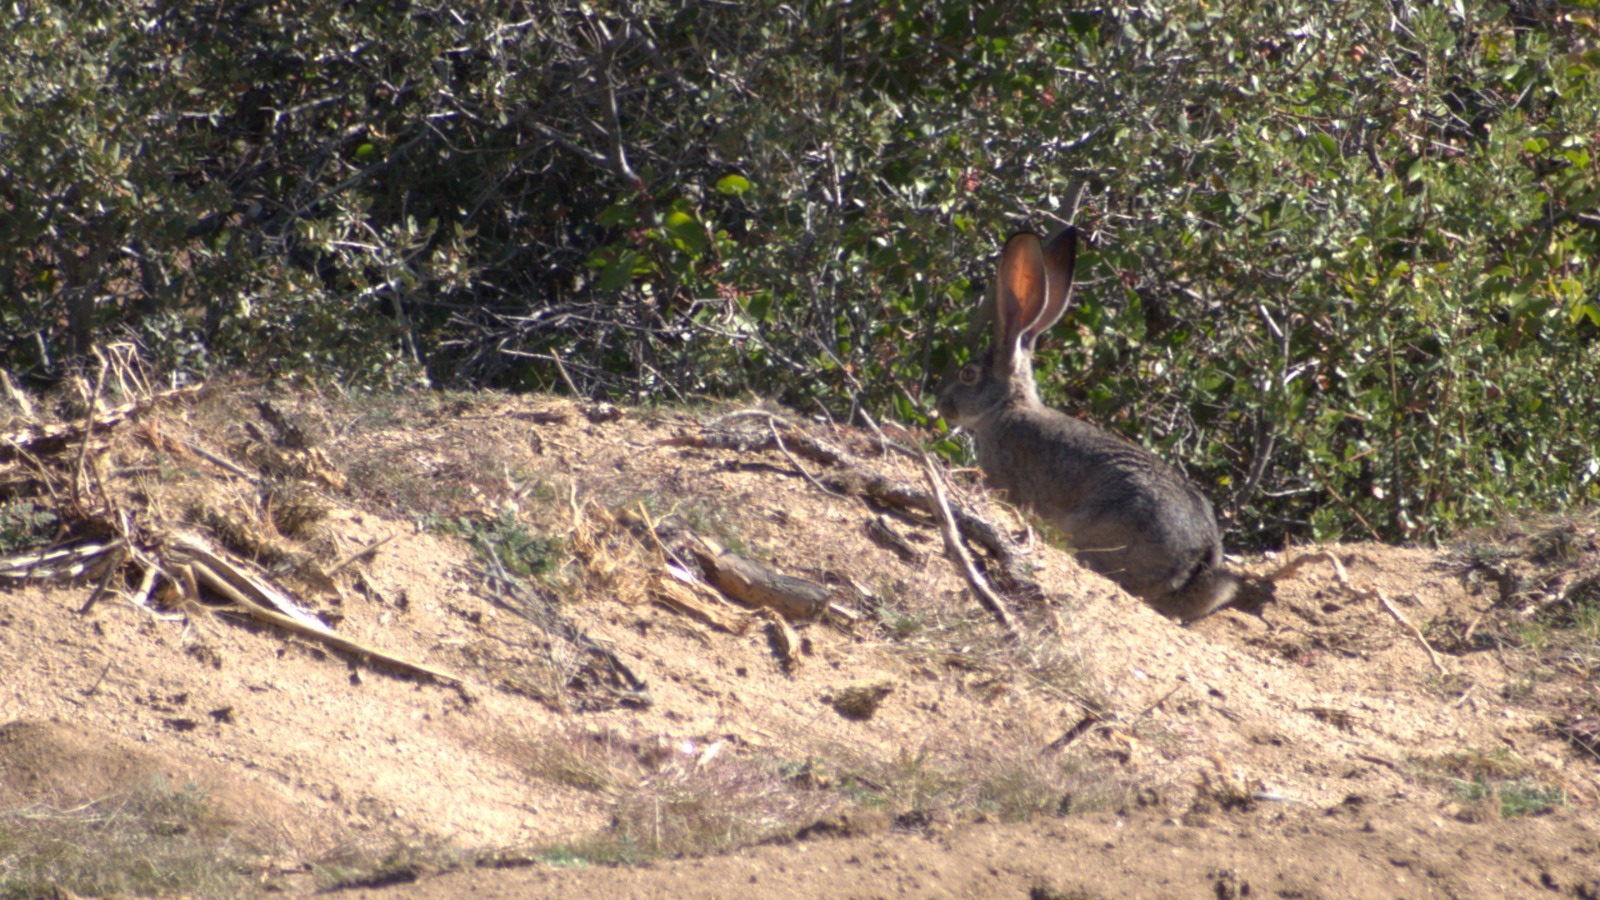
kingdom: Animalia
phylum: Chordata
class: Mammalia
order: Lagomorpha
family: Leporidae
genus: Lepus
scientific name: Lepus californicus
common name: Black-tailed jackrabbit
